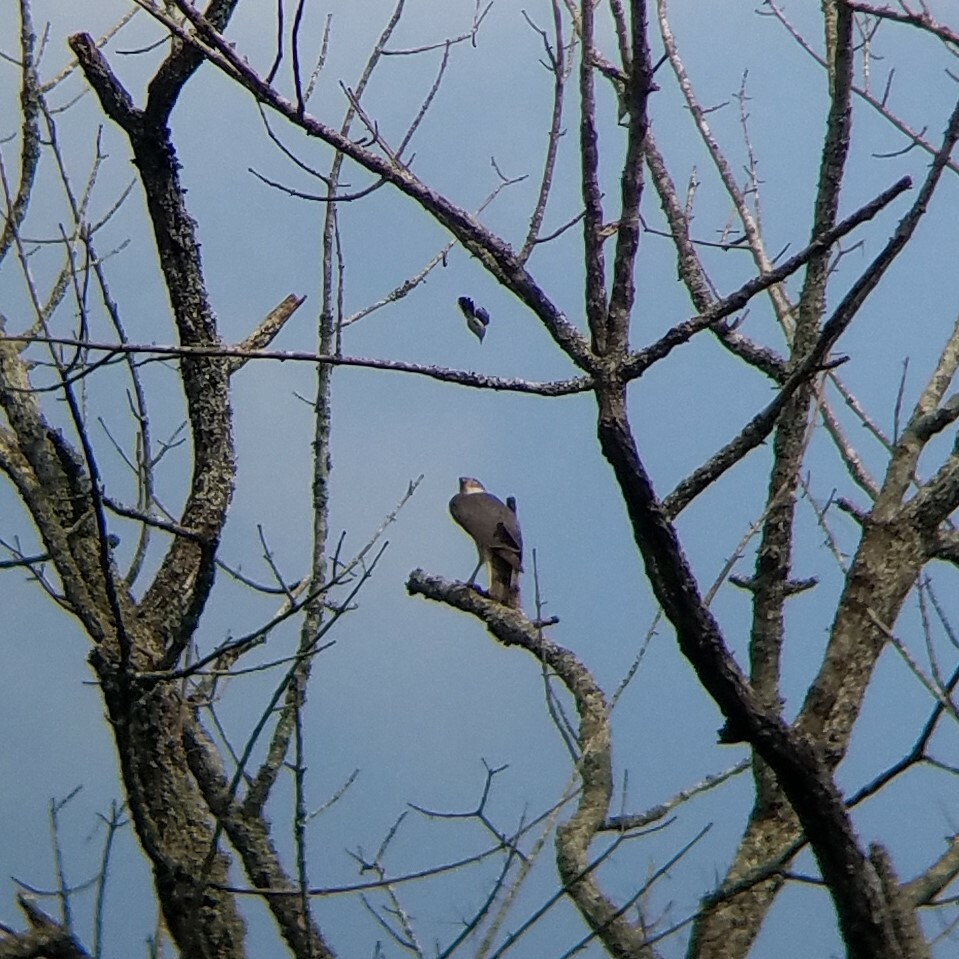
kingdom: Animalia
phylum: Chordata
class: Aves
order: Accipitriformes
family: Accipitridae
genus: Accipiter
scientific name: Accipiter cooperii
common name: Cooper's hawk
